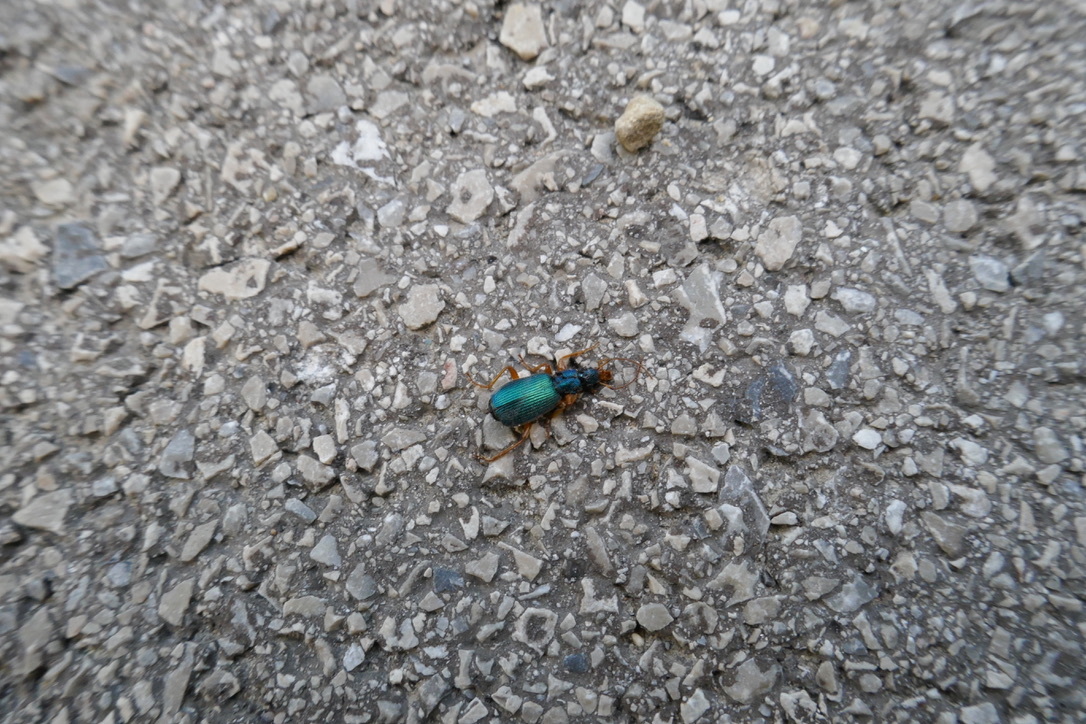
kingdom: Animalia
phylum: Arthropoda
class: Insecta
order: Coleoptera
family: Carabidae
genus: Drypta
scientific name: Drypta dentata
